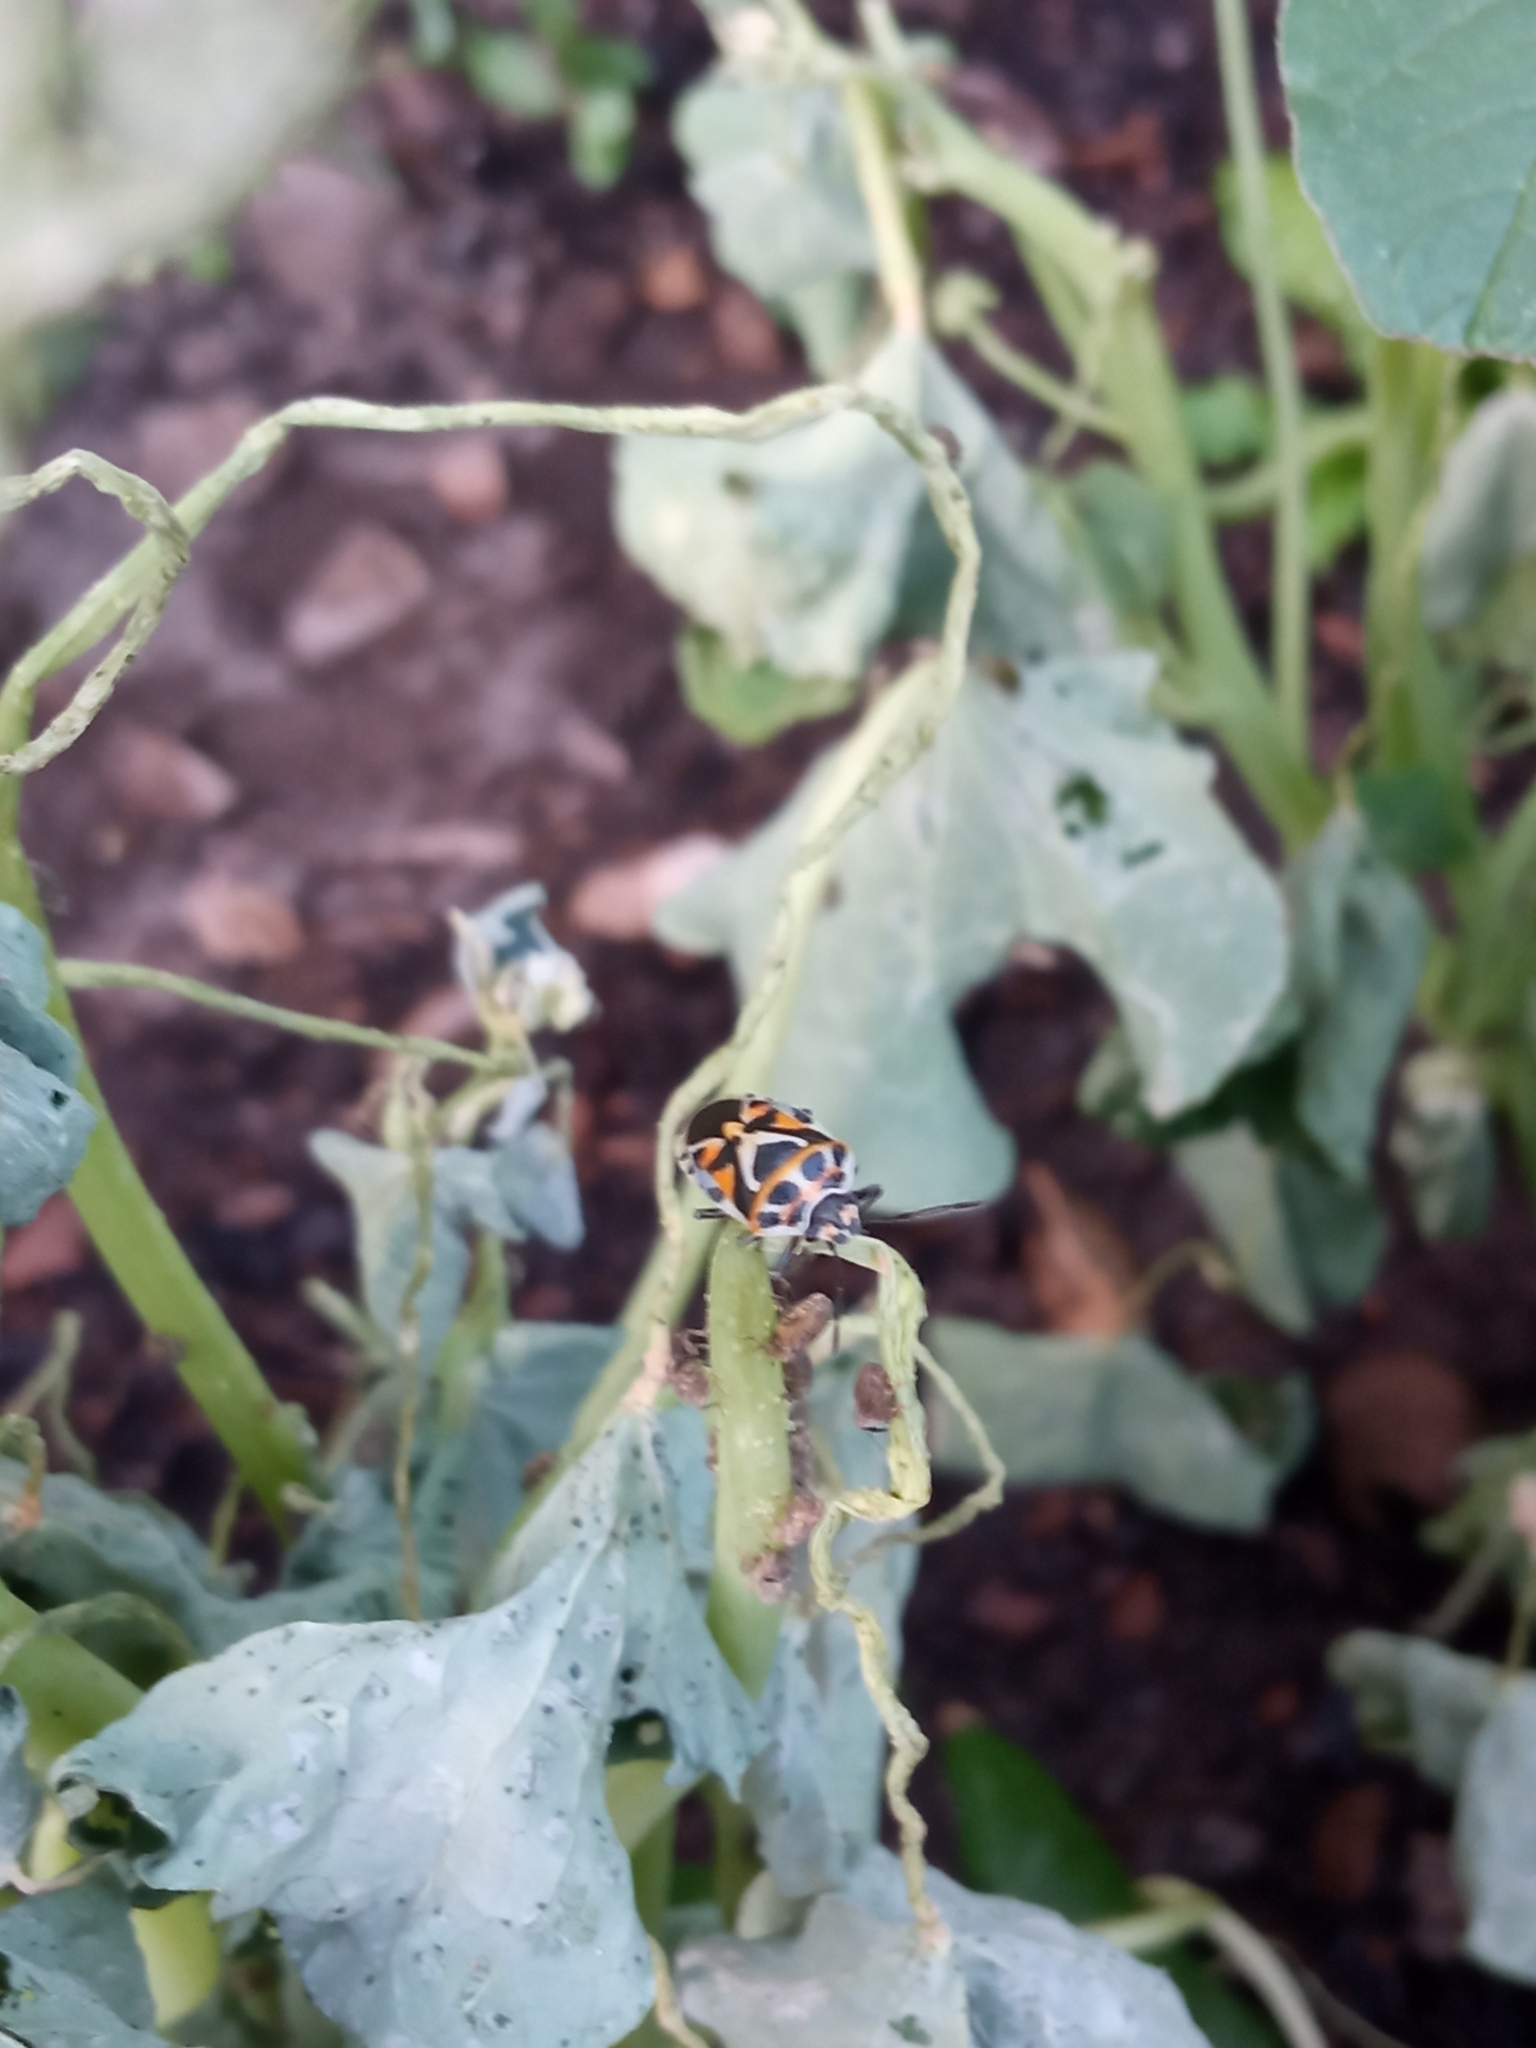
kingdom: Animalia
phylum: Arthropoda
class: Insecta
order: Hemiptera
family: Pentatomidae
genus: Eurydema
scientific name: Eurydema ornata
